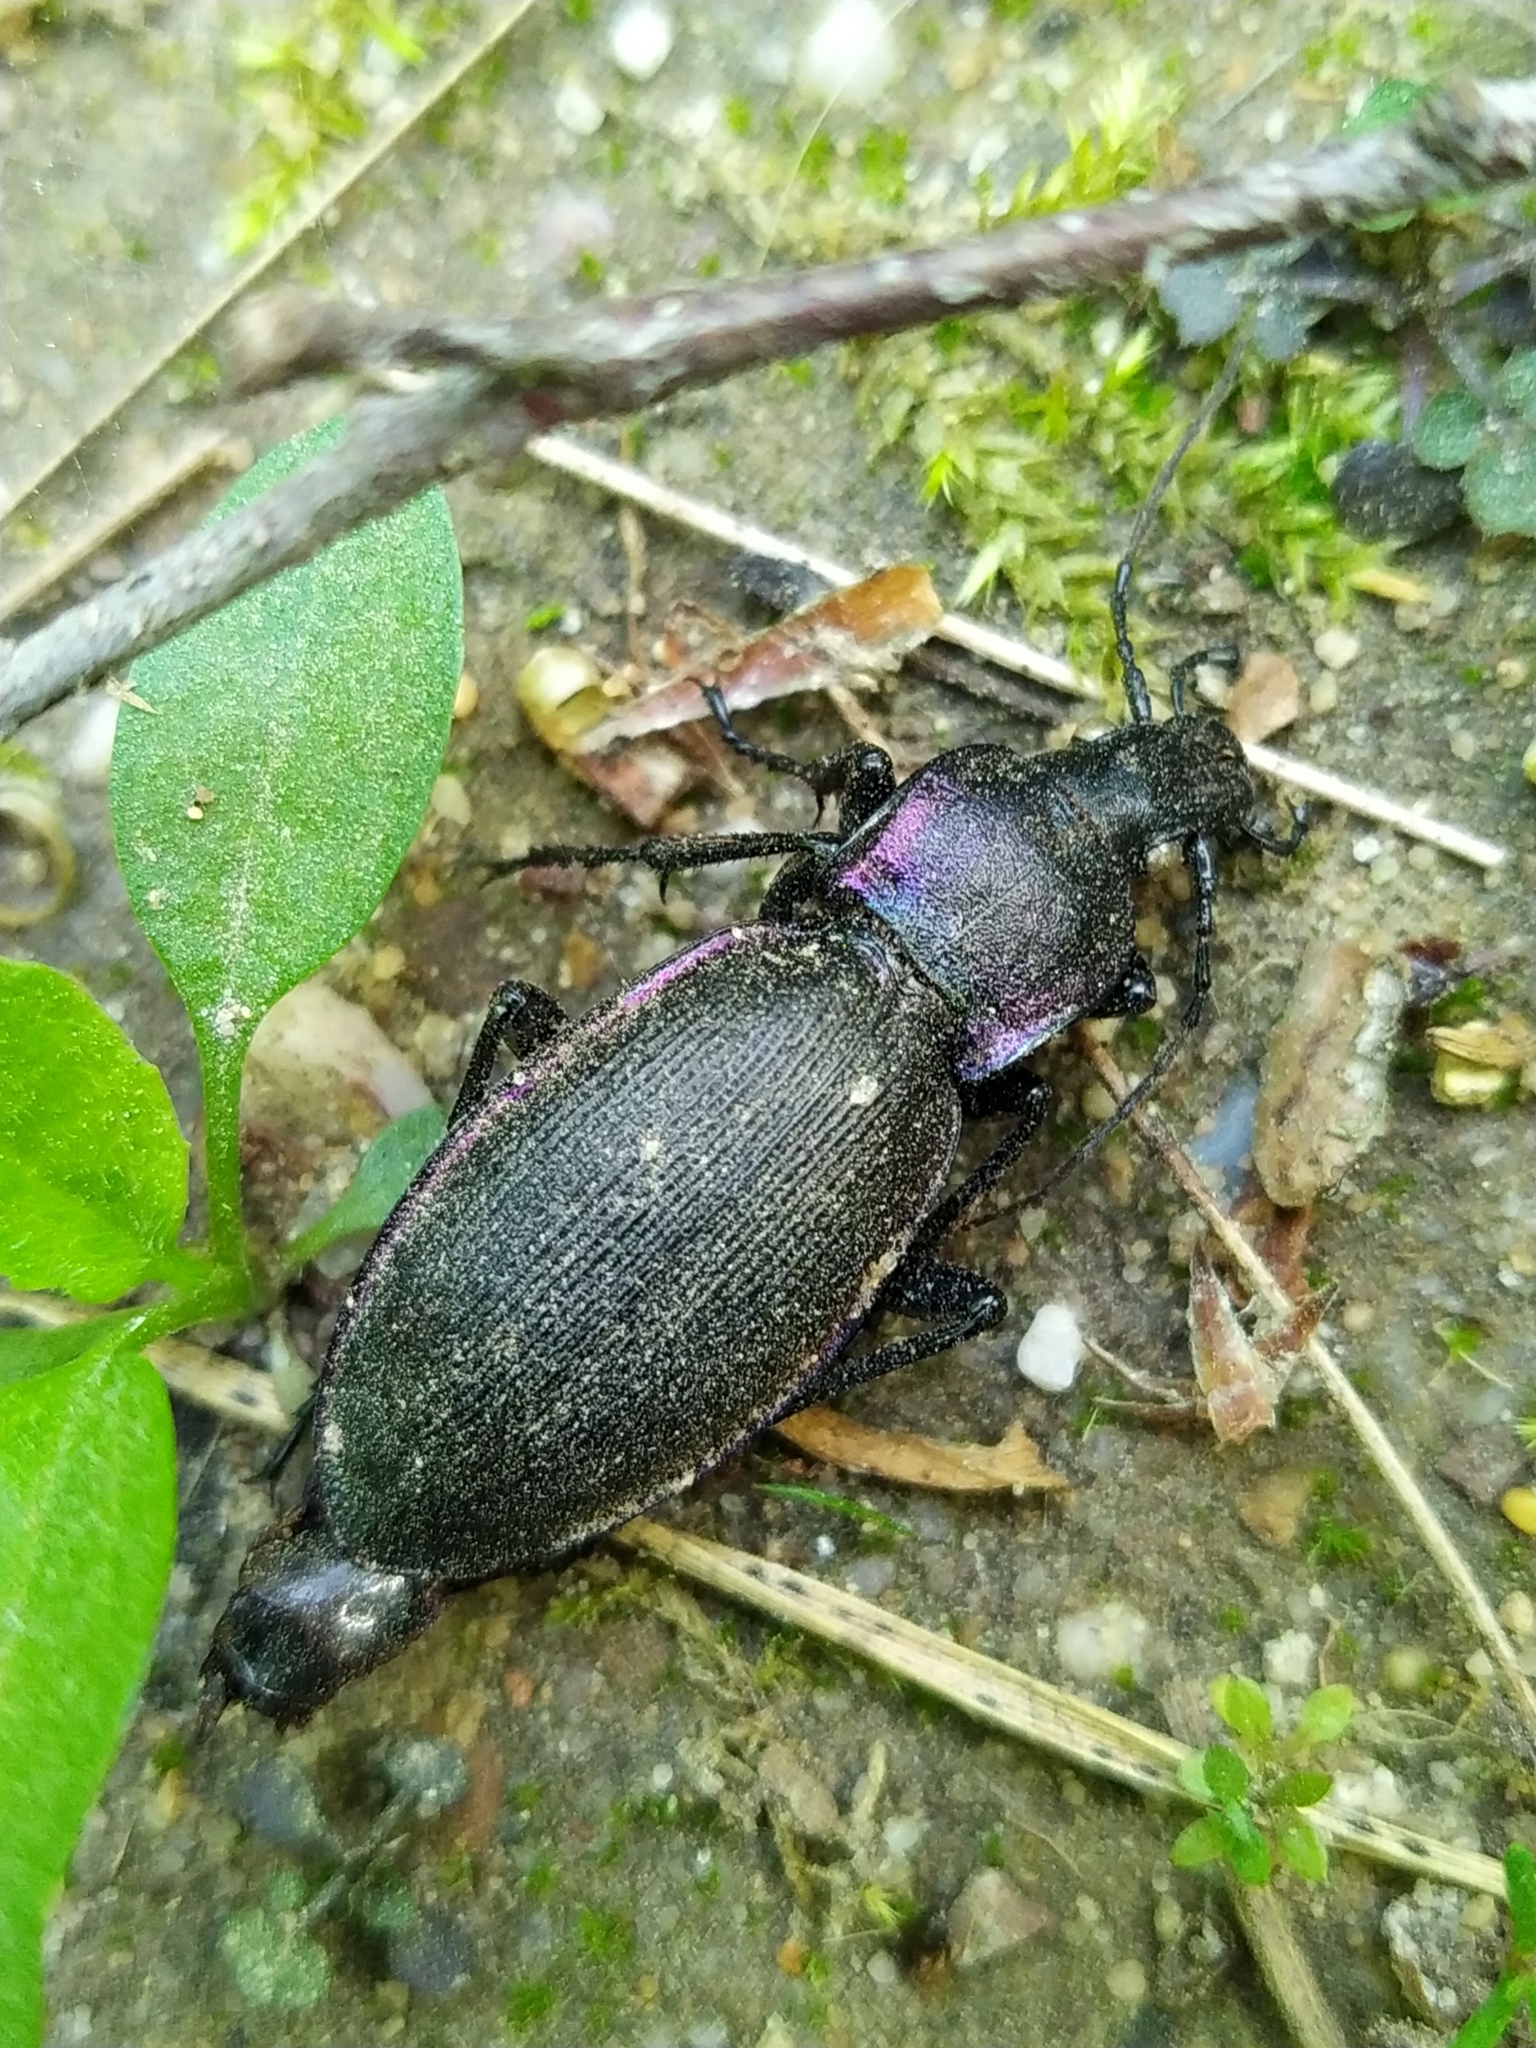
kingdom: Animalia
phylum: Arthropoda
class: Insecta
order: Coleoptera
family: Carabidae
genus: Carabus
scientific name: Carabus purpurascens
